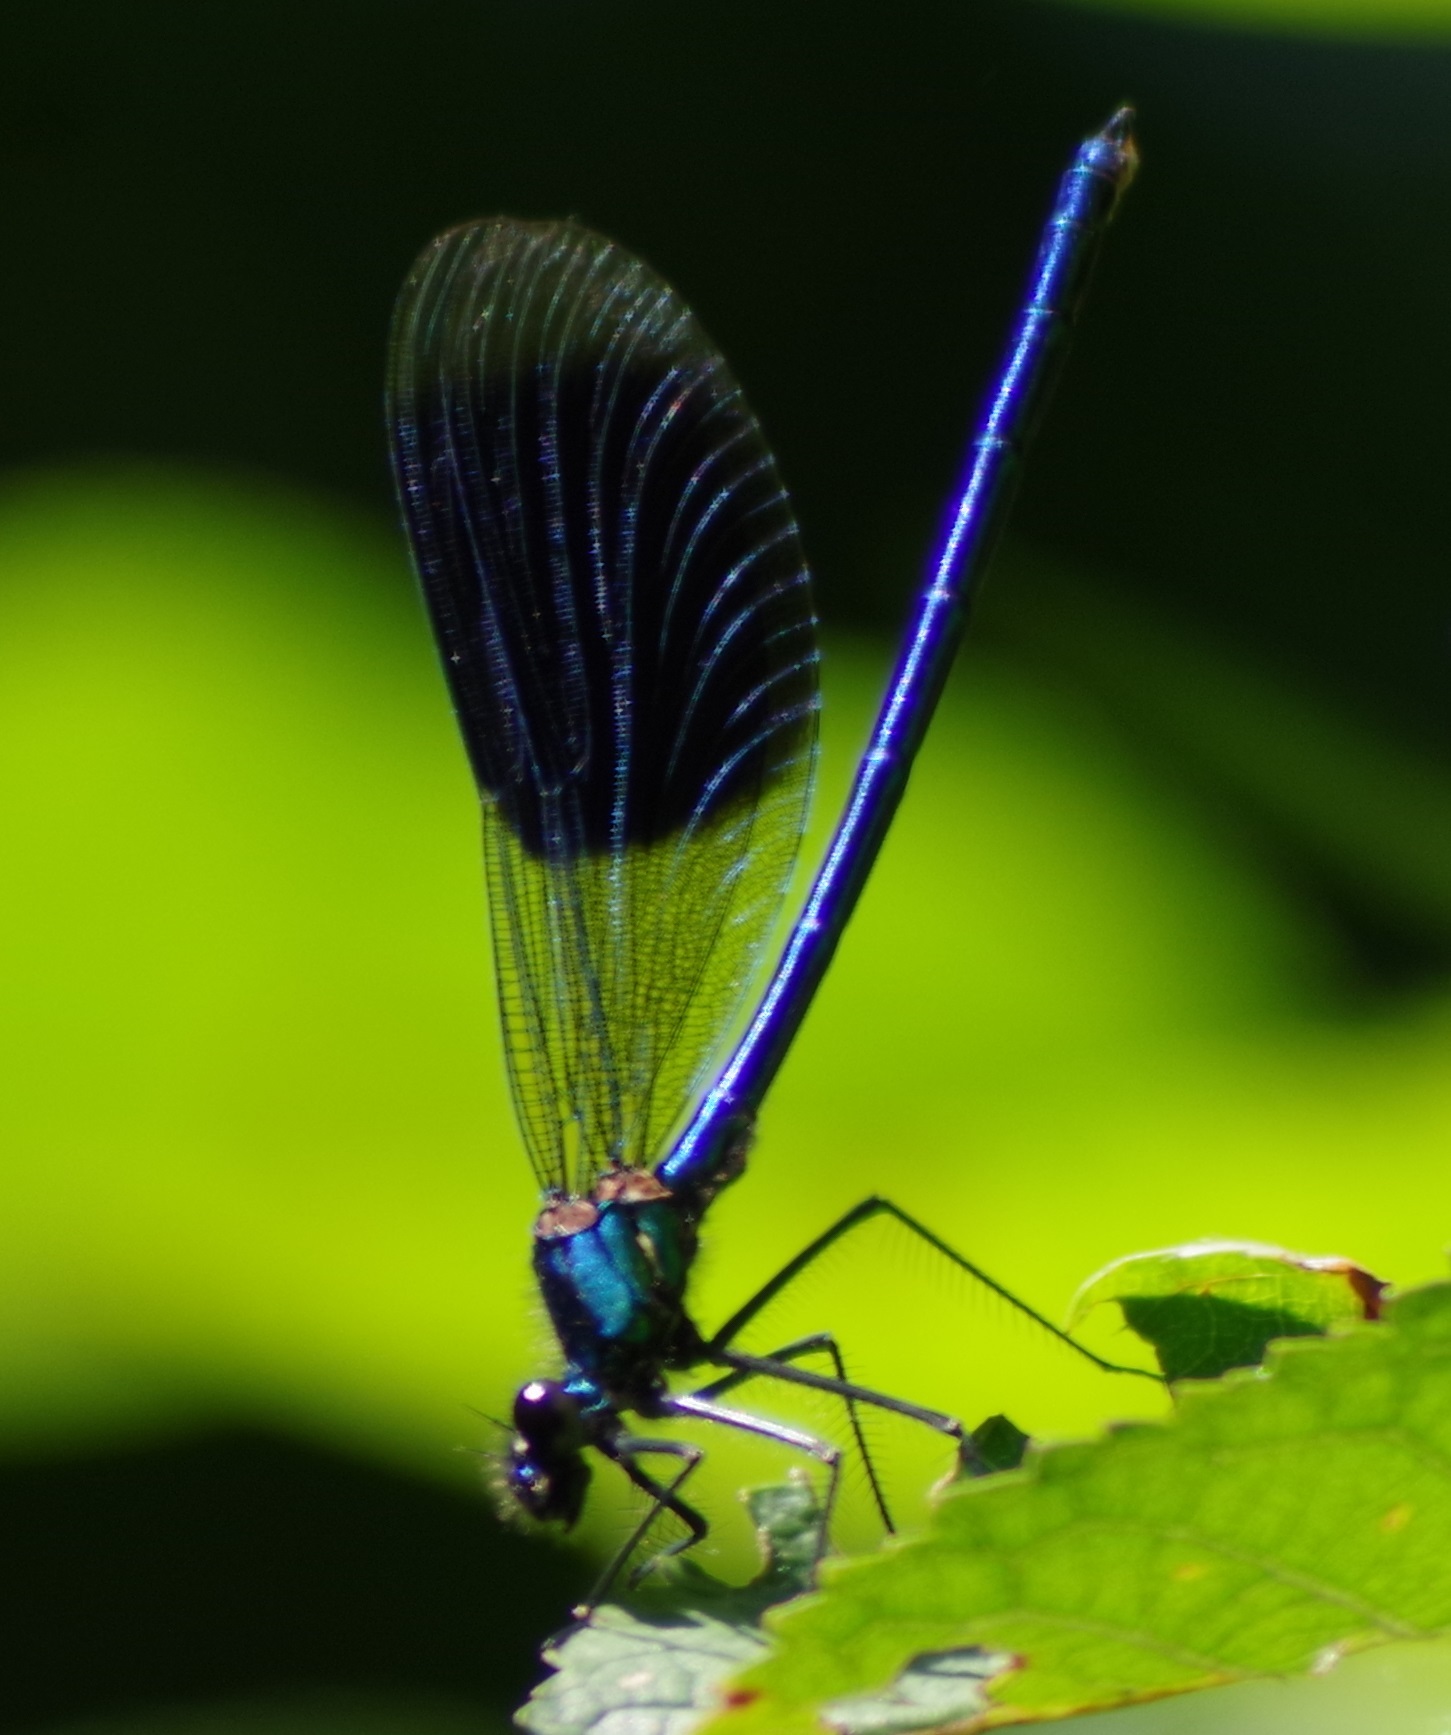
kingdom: Animalia
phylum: Arthropoda
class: Insecta
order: Odonata
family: Calopterygidae
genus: Calopteryx
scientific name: Calopteryx splendens
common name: Banded demoiselle
